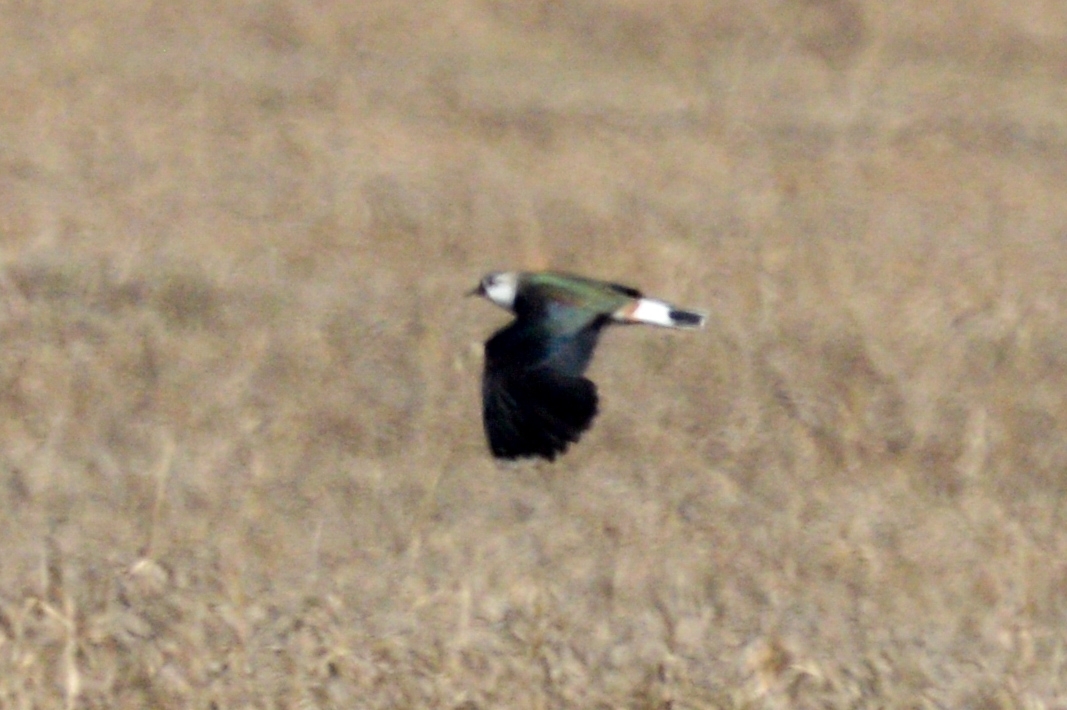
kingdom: Animalia
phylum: Chordata
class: Aves
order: Charadriiformes
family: Charadriidae
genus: Vanellus
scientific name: Vanellus vanellus
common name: Northern lapwing
